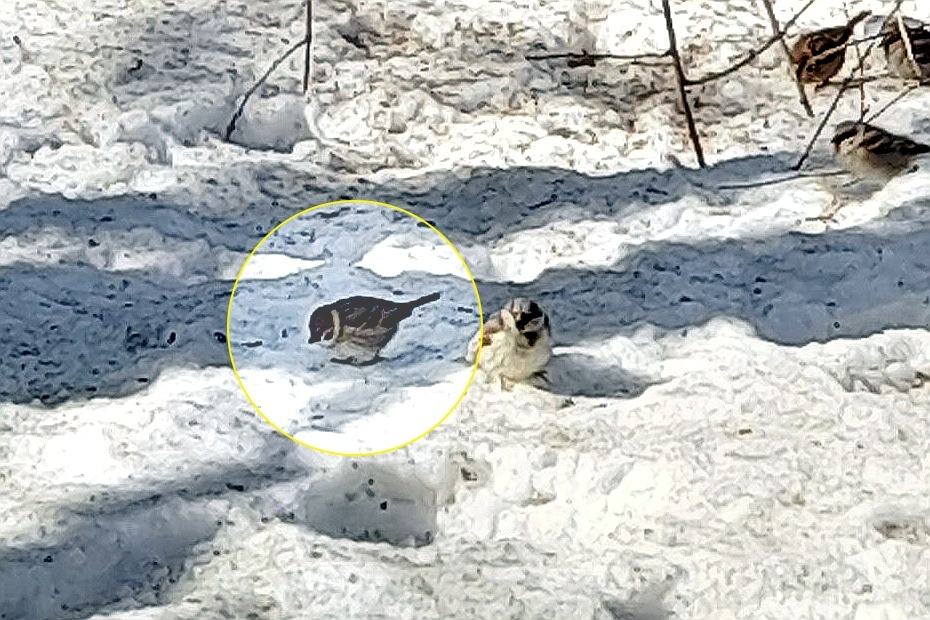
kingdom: Animalia
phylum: Chordata
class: Aves
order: Passeriformes
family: Passeridae
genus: Passer
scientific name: Passer montanus
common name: Eurasian tree sparrow
